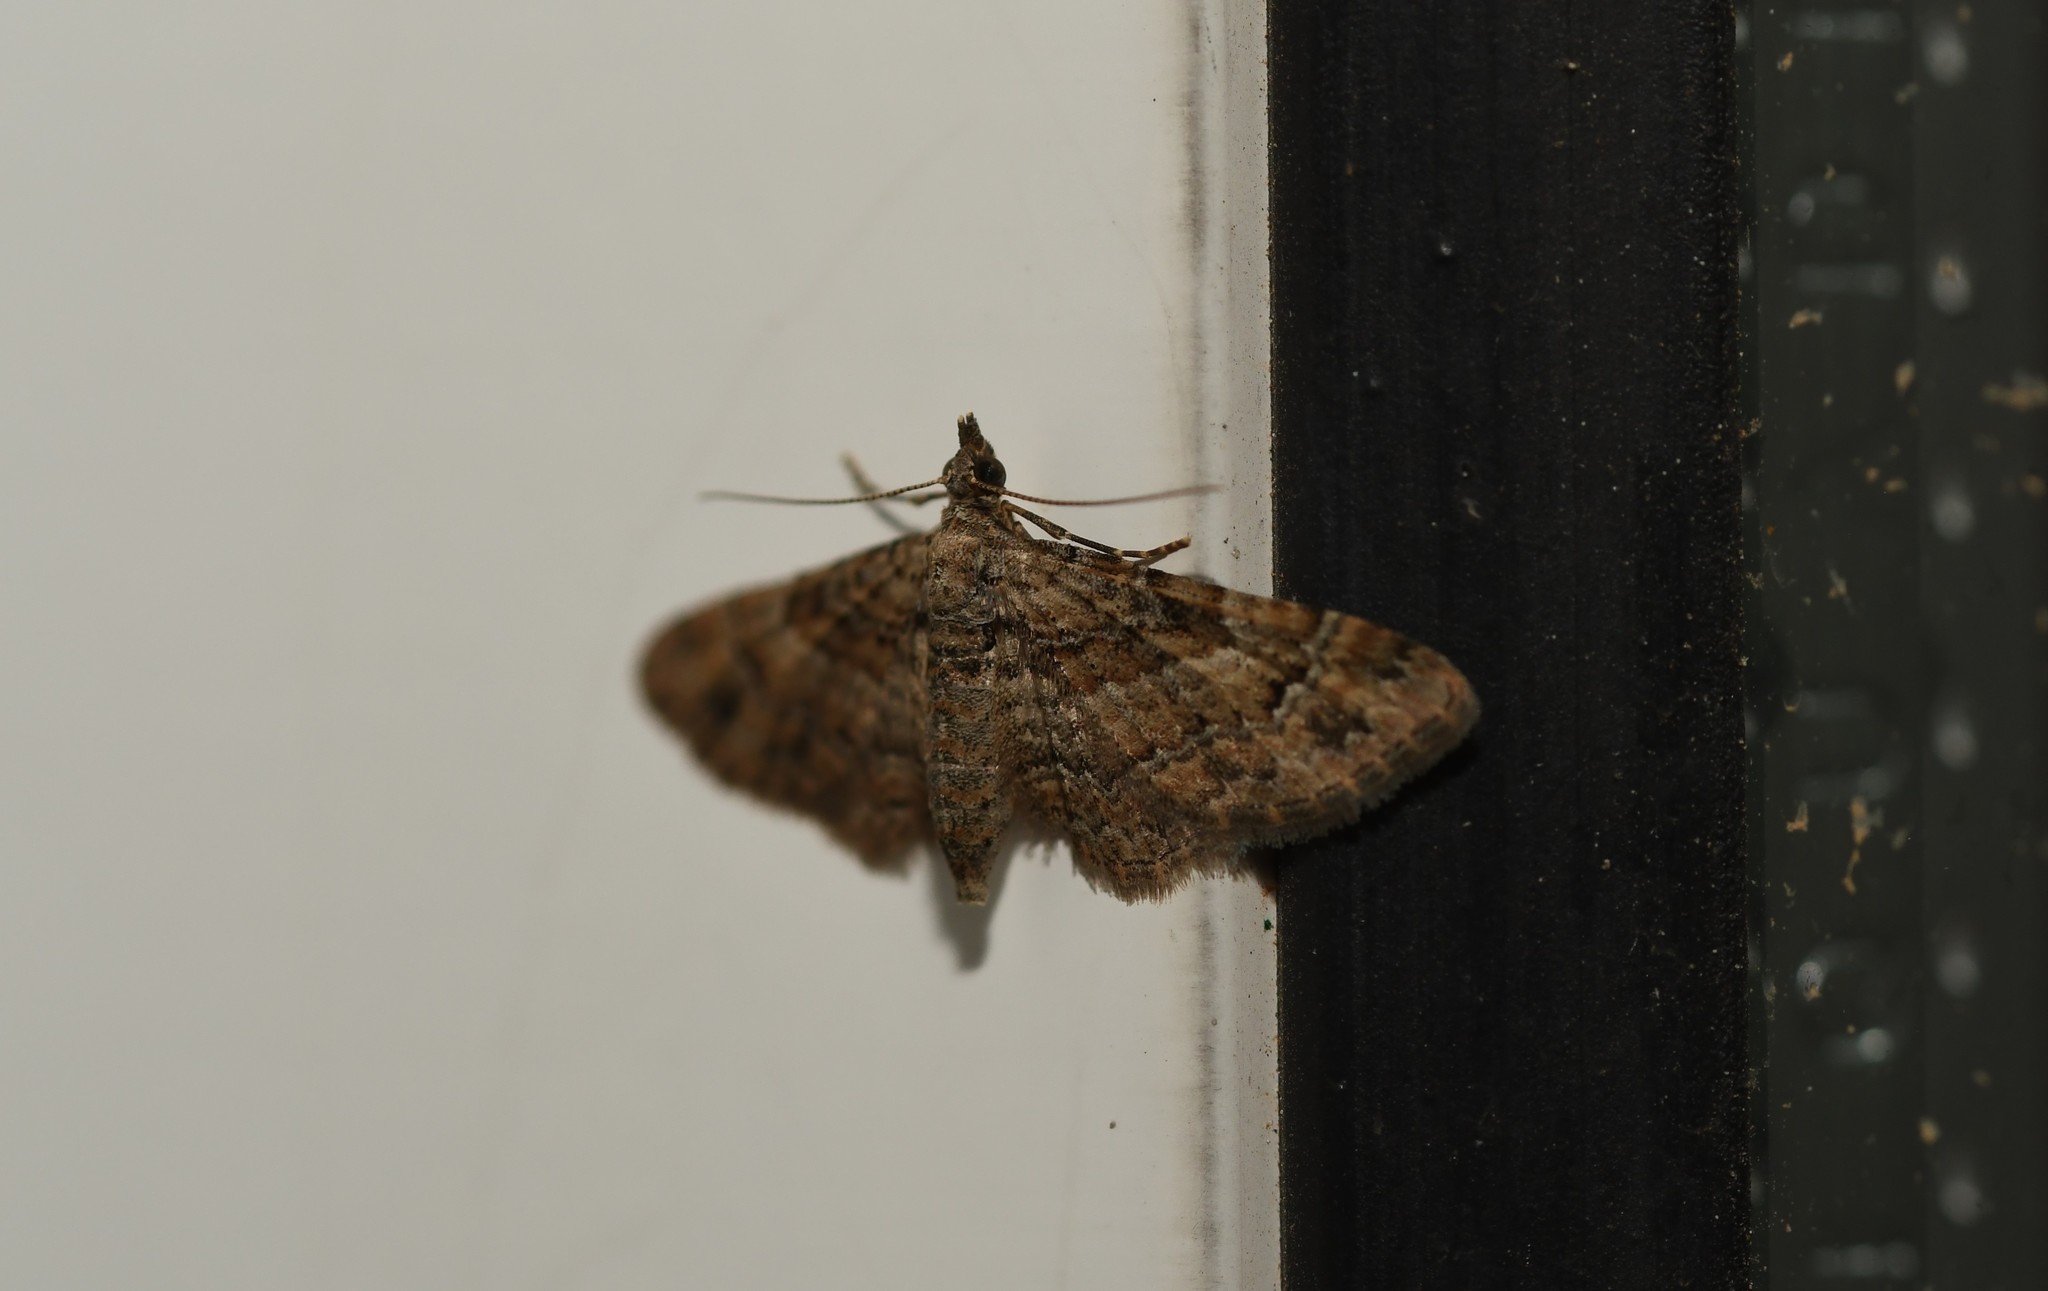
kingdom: Animalia
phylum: Arthropoda
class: Insecta
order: Lepidoptera
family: Geometridae
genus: Gymnoscelis
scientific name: Gymnoscelis rufifasciata
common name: Double-striped pug
